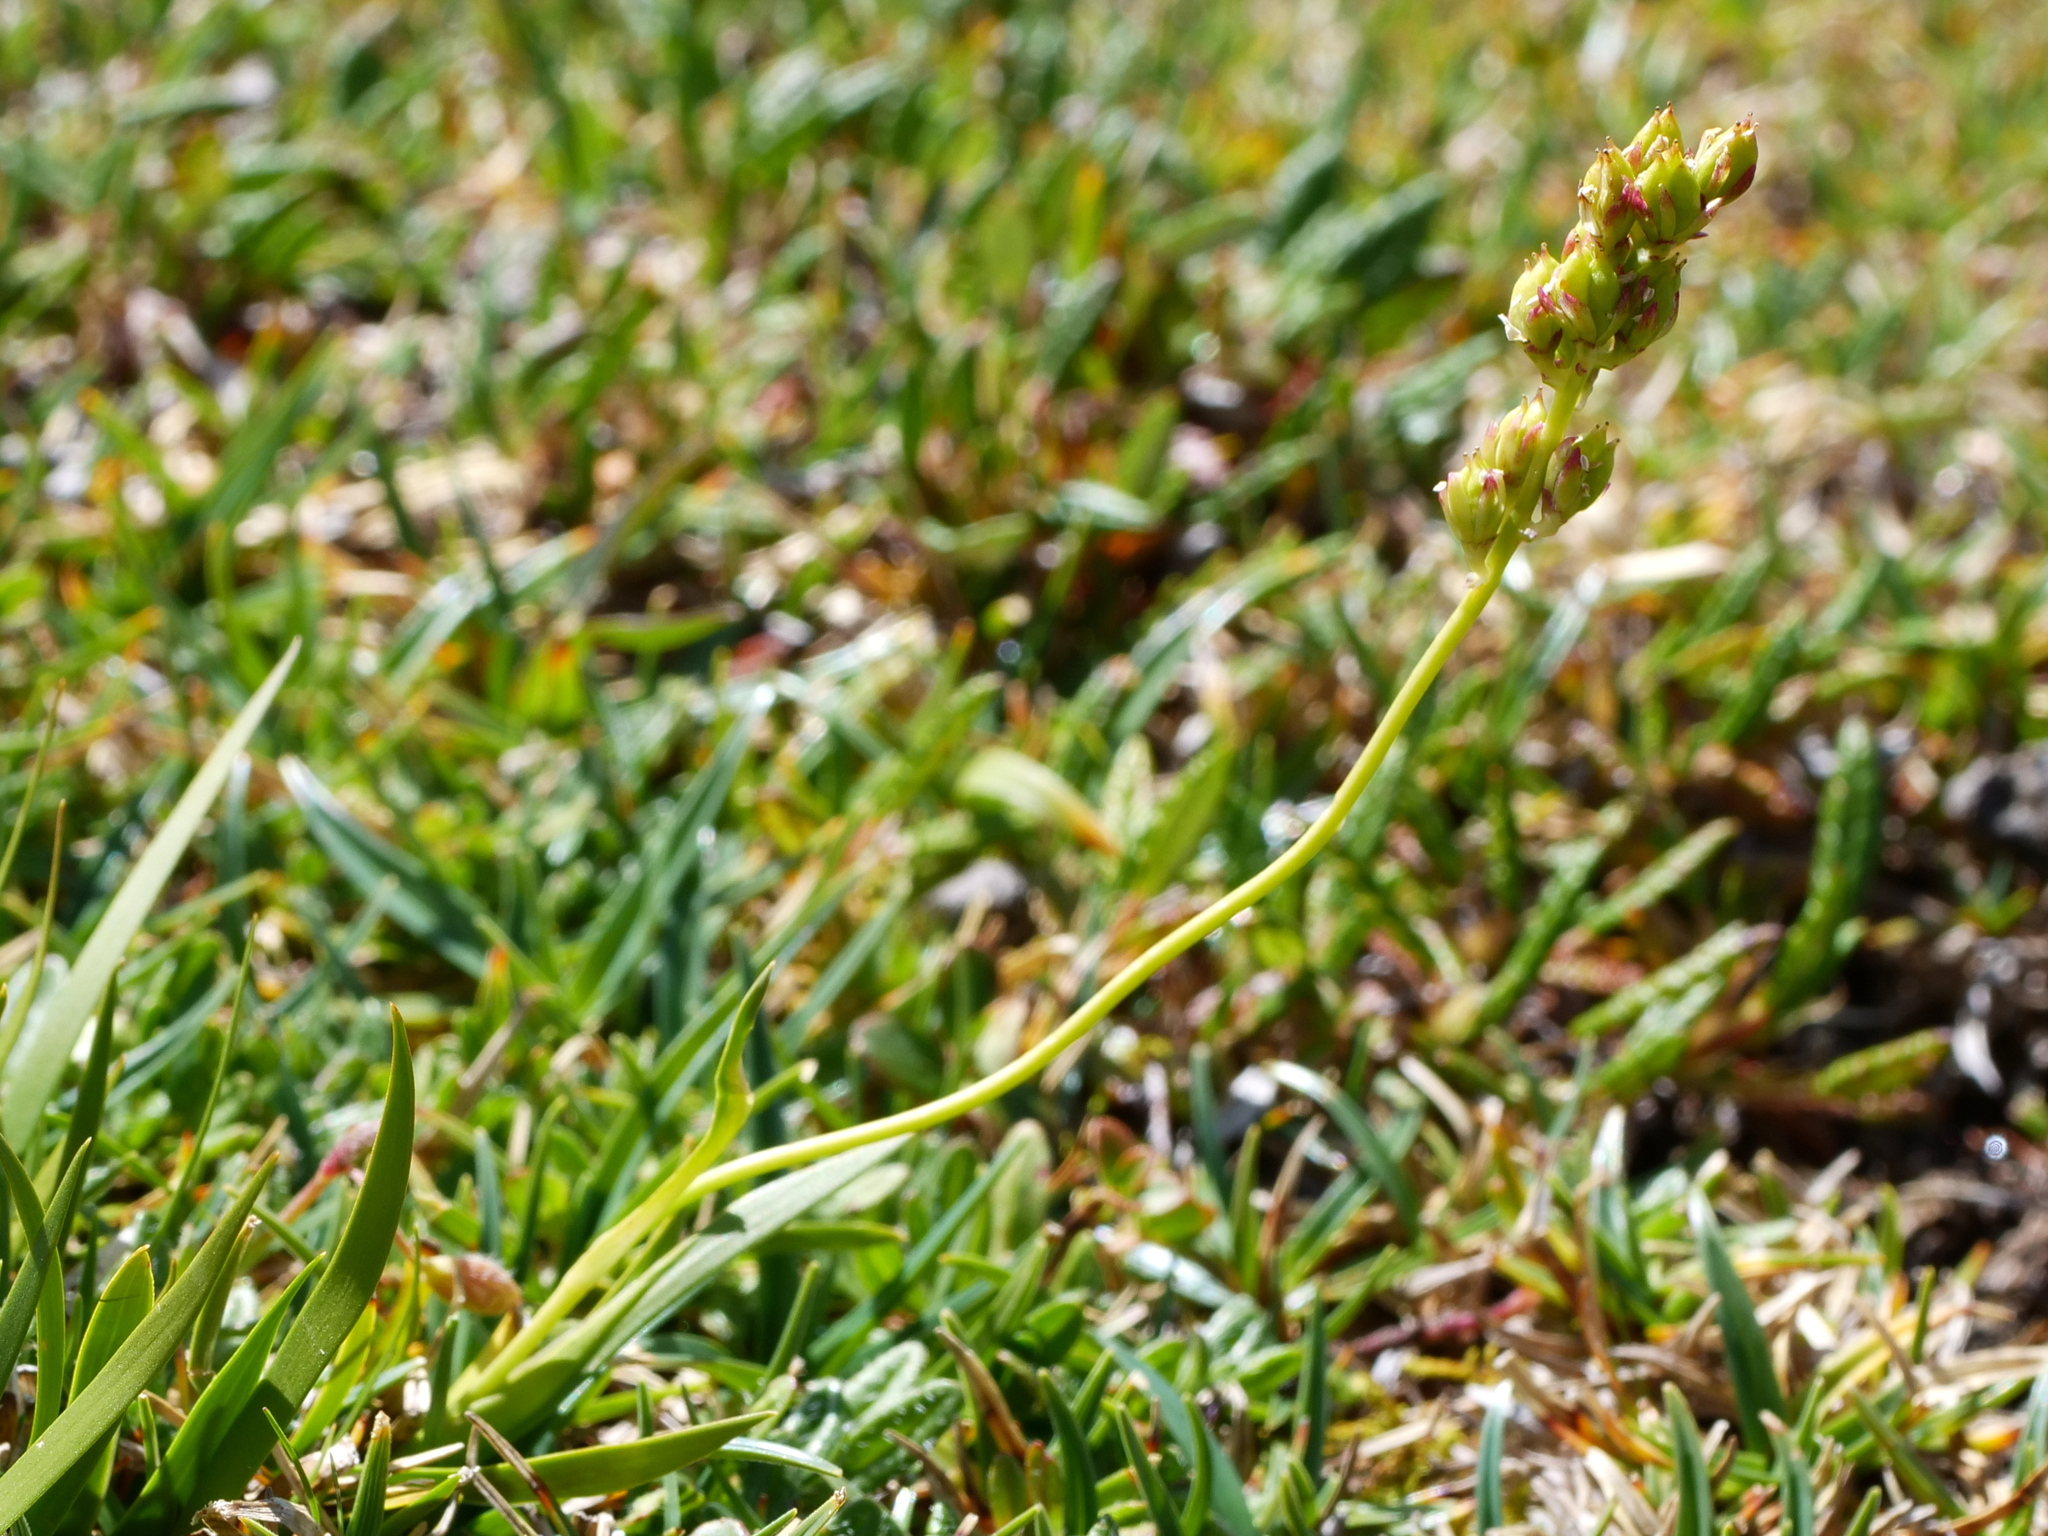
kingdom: Plantae
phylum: Tracheophyta
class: Liliopsida
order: Alismatales
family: Tofieldiaceae
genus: Tofieldia
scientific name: Tofieldia calyculata
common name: German-asphodel
